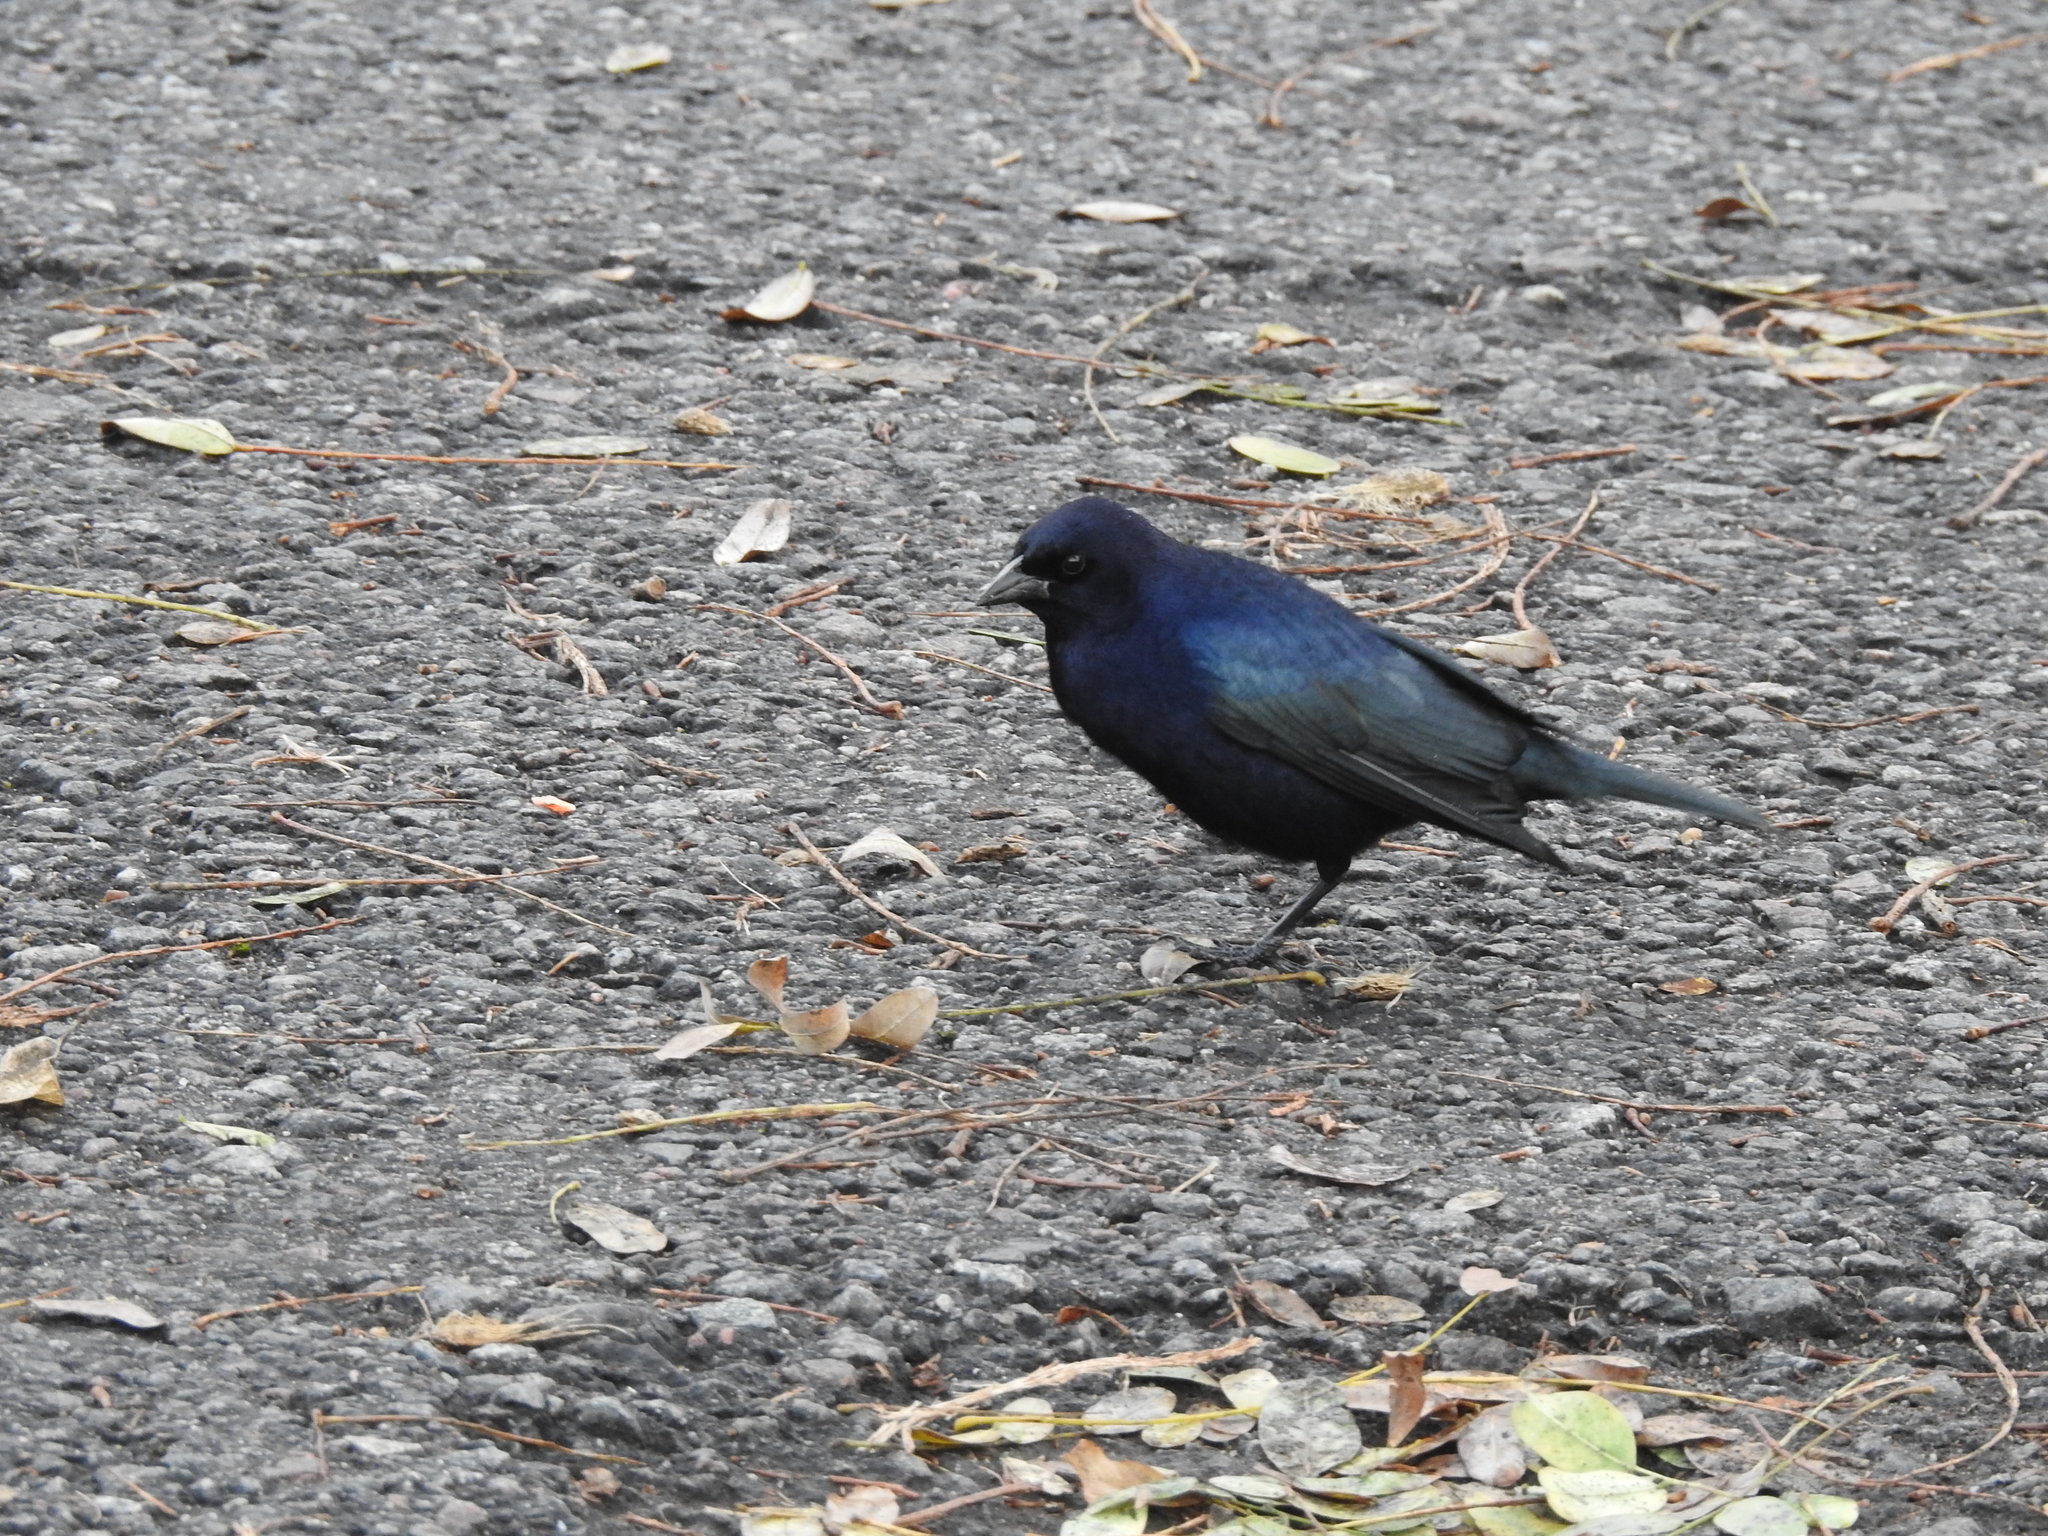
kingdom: Animalia
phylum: Chordata
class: Aves
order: Passeriformes
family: Icteridae
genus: Molothrus
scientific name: Molothrus bonariensis
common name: Shiny cowbird
